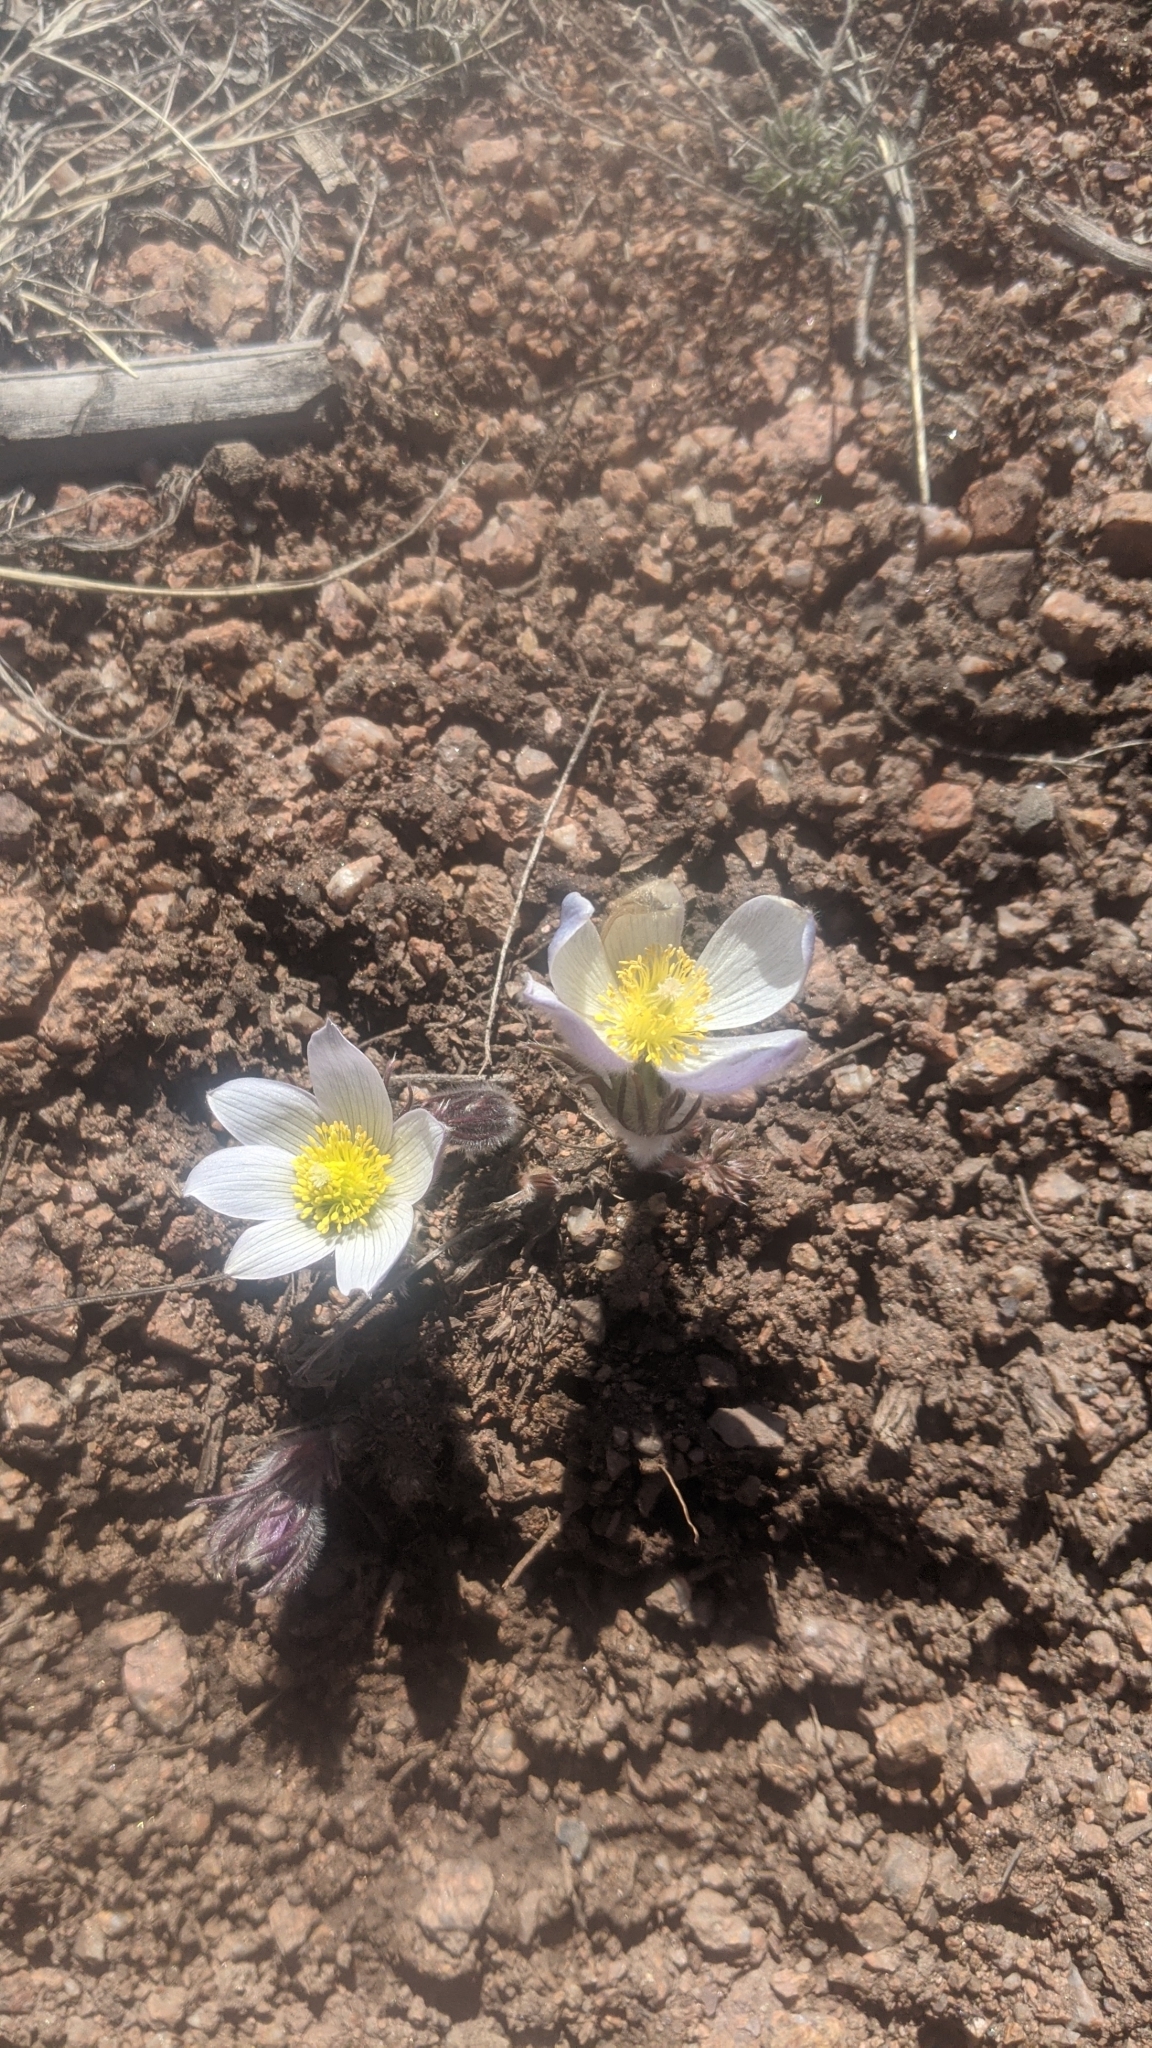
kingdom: Plantae
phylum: Tracheophyta
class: Magnoliopsida
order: Ranunculales
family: Ranunculaceae
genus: Pulsatilla
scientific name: Pulsatilla nuttalliana
